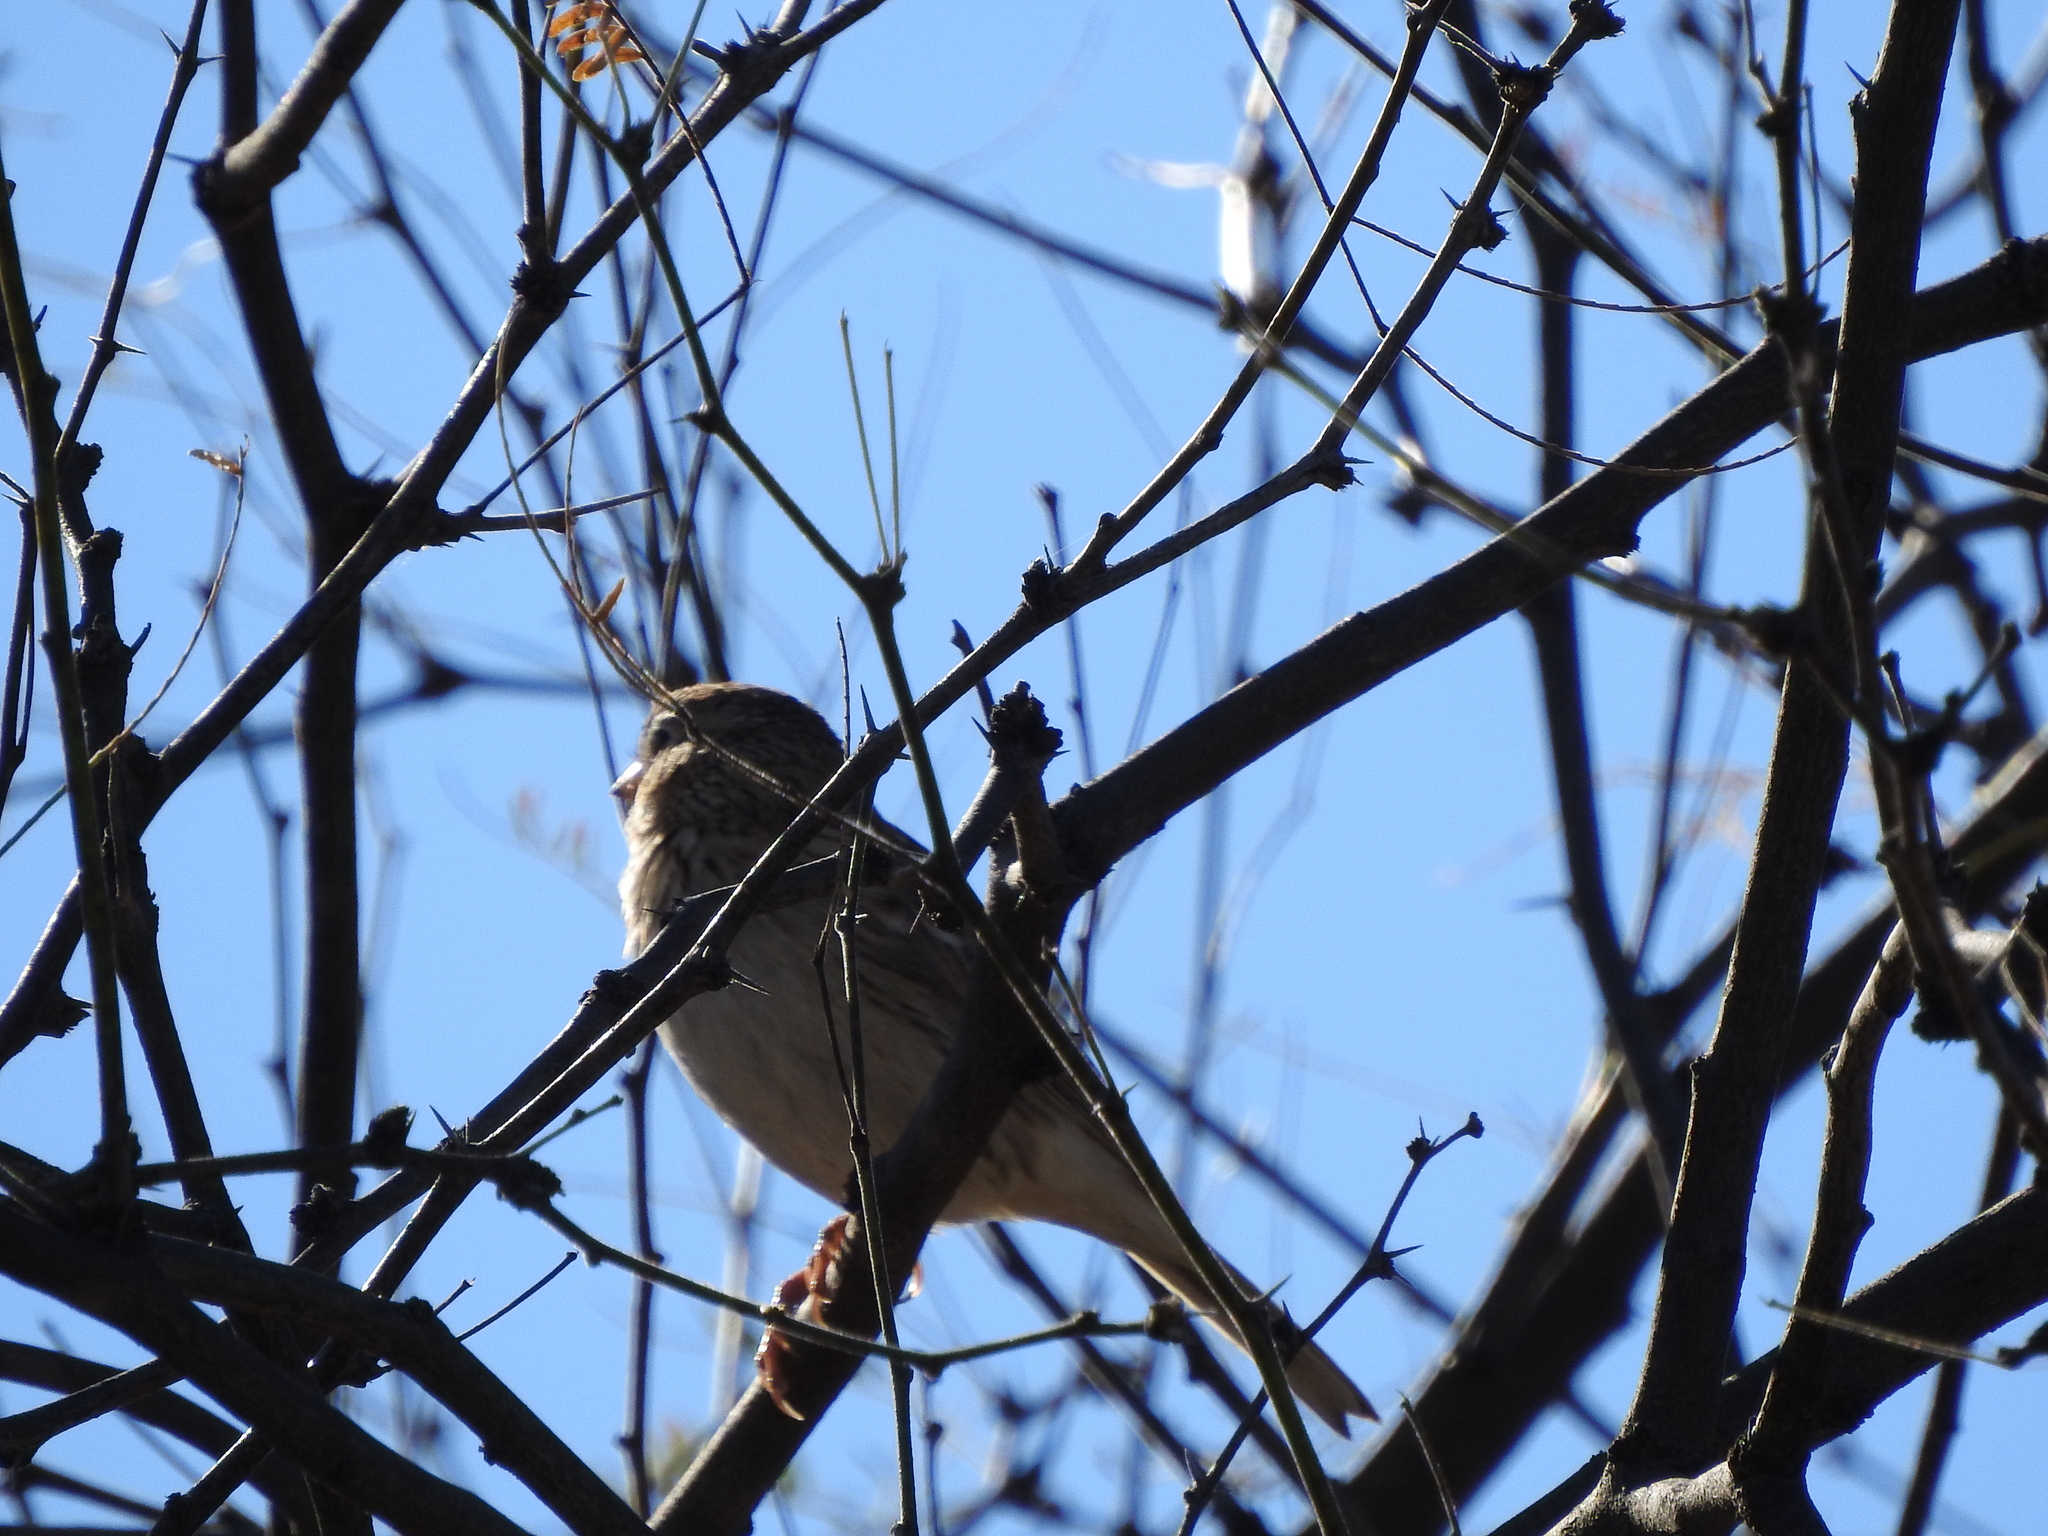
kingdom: Animalia
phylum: Chordata
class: Aves
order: Passeriformes
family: Passerellidae
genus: Pooecetes
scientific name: Pooecetes gramineus
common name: Vesper sparrow
